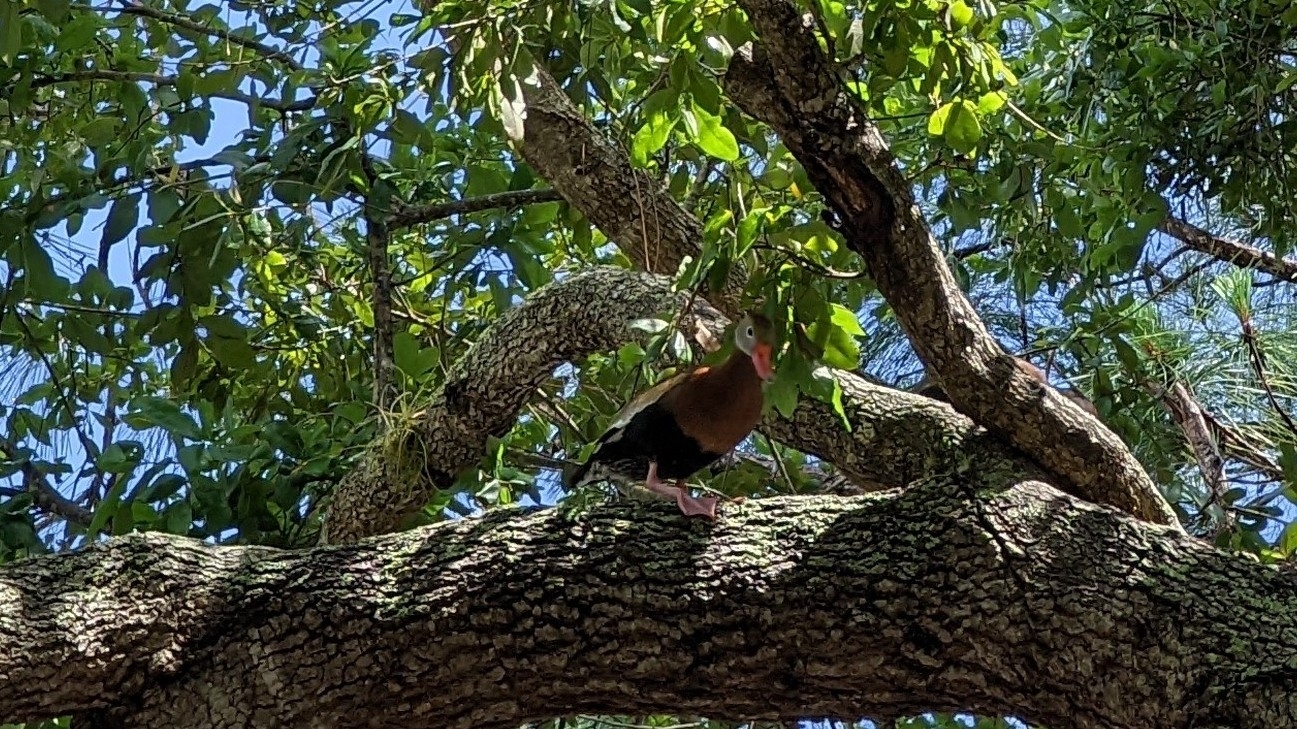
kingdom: Animalia
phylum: Chordata
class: Aves
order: Anseriformes
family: Anatidae
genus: Dendrocygna
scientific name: Dendrocygna autumnalis
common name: Black-bellied whistling duck
